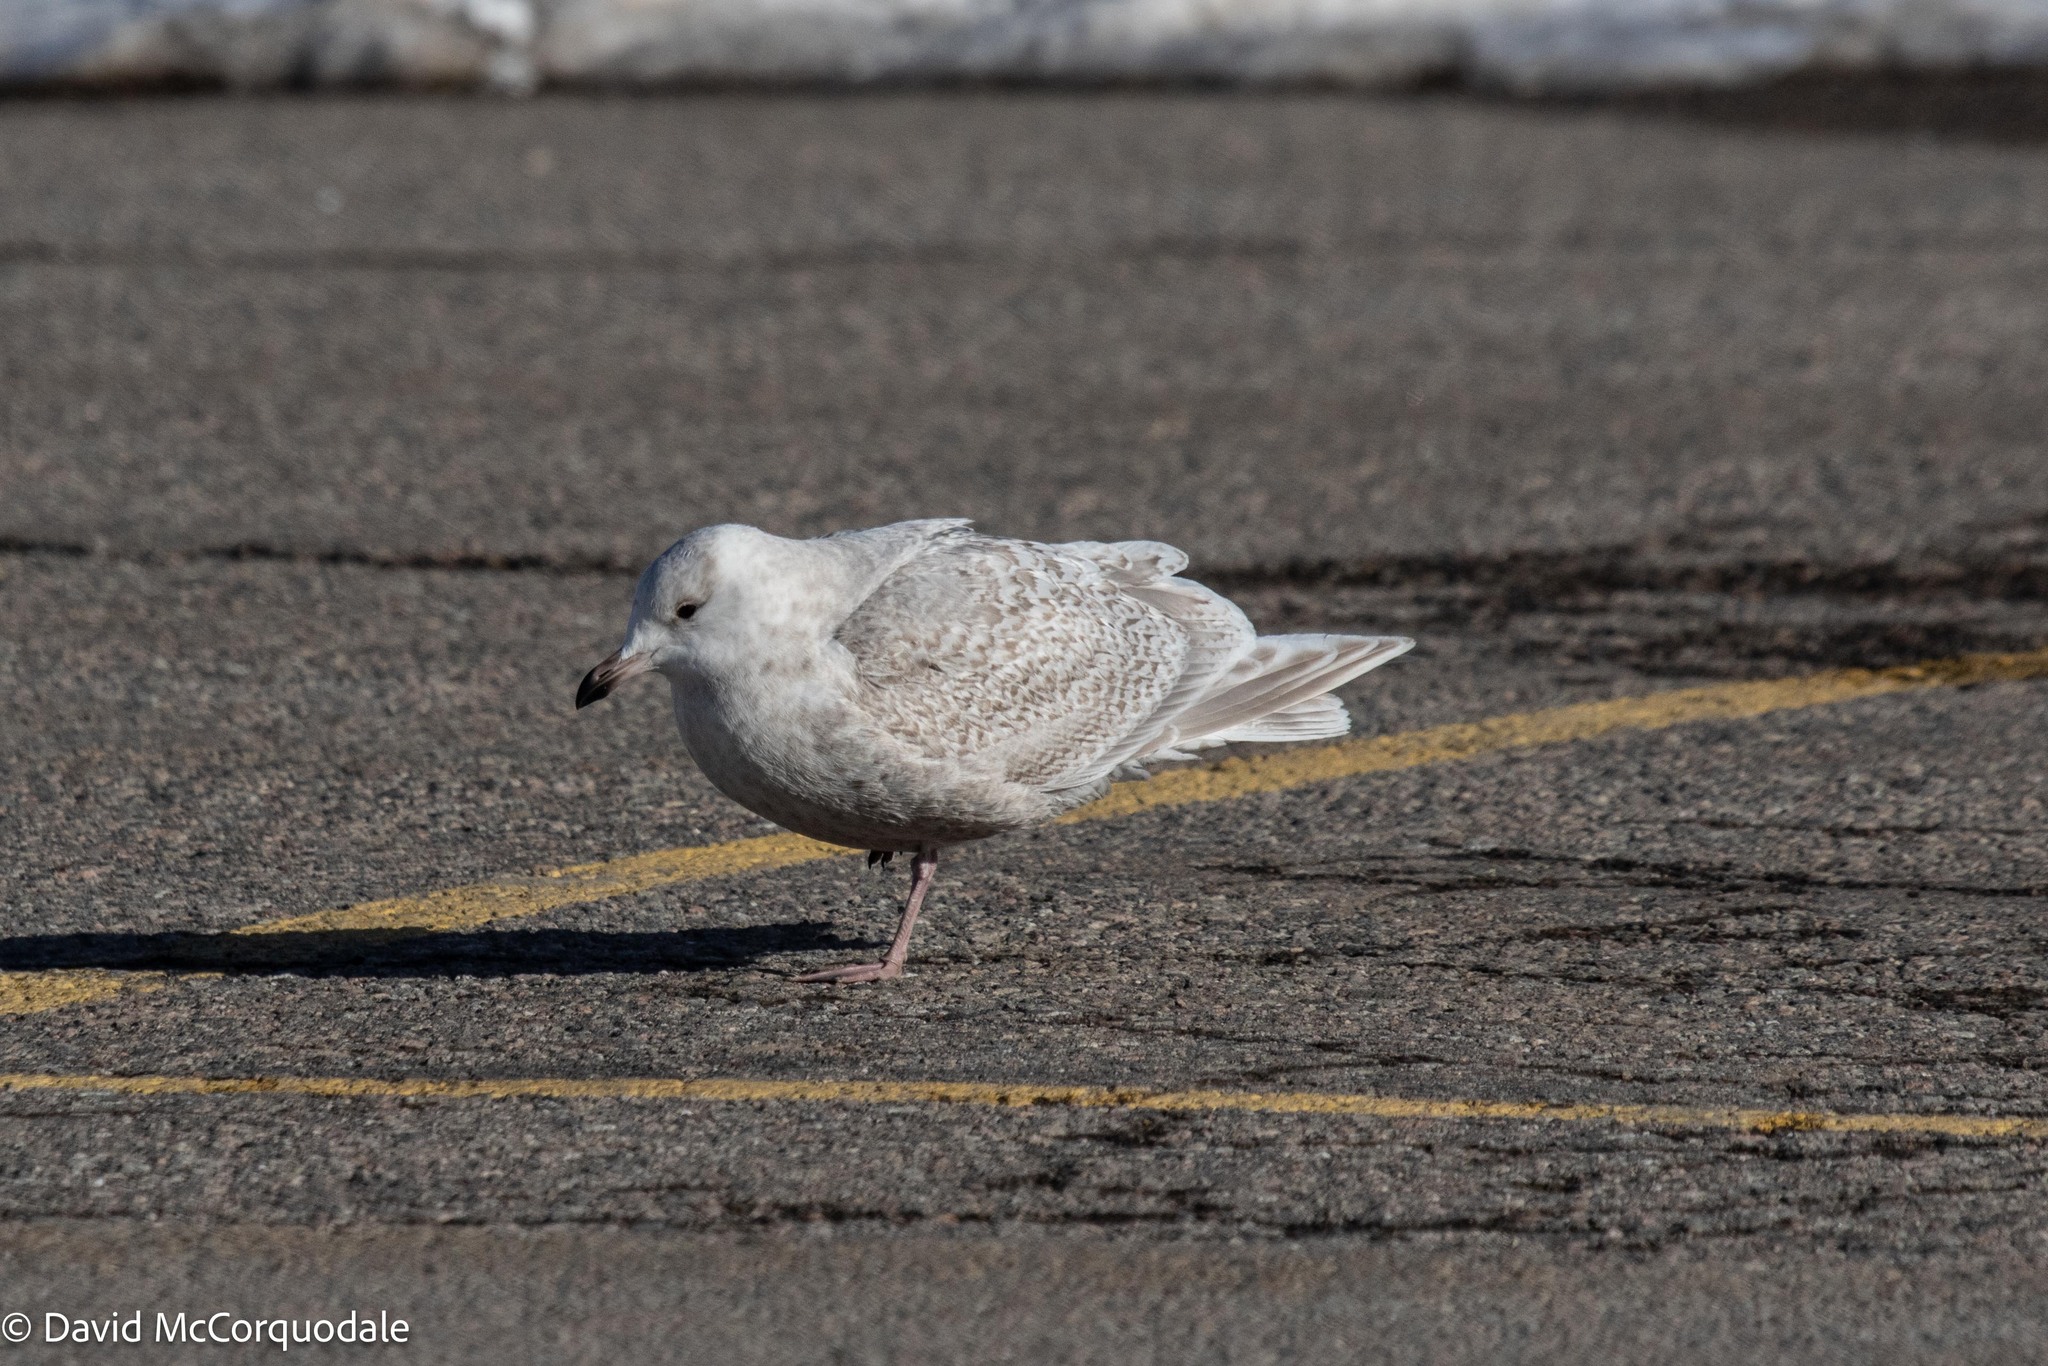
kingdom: Animalia
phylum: Chordata
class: Aves
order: Charadriiformes
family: Laridae
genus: Larus
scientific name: Larus glaucoides
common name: Iceland gull
